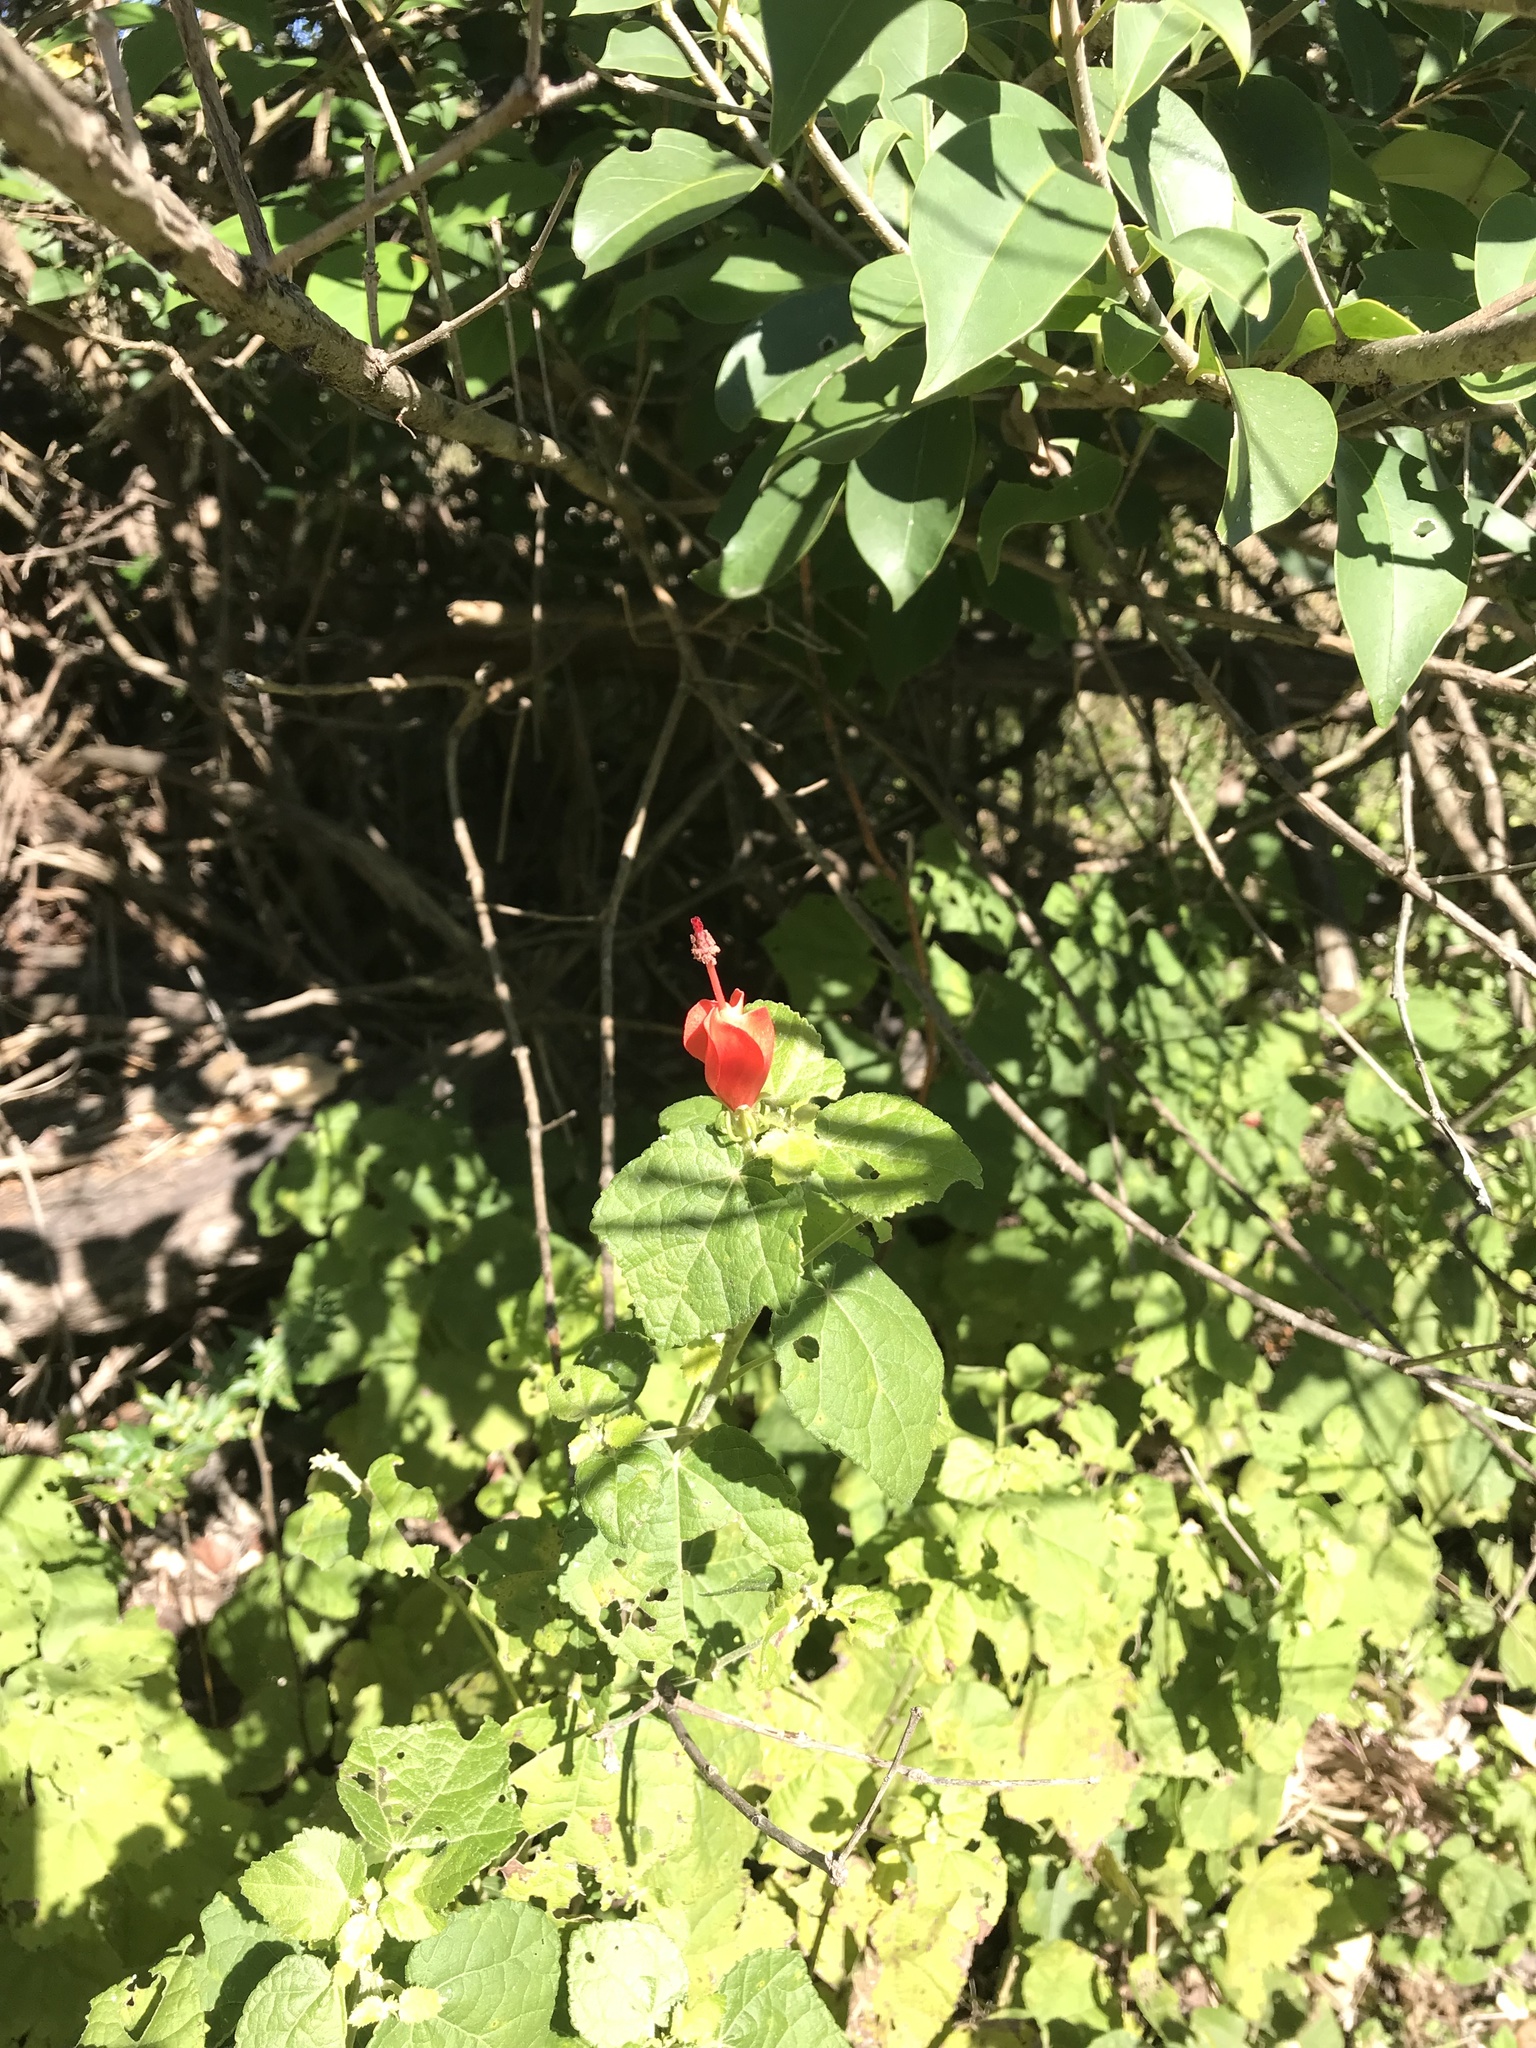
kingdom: Plantae
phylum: Tracheophyta
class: Magnoliopsida
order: Malvales
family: Malvaceae
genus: Malvaviscus
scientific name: Malvaviscus arboreus
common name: Wax mallow
